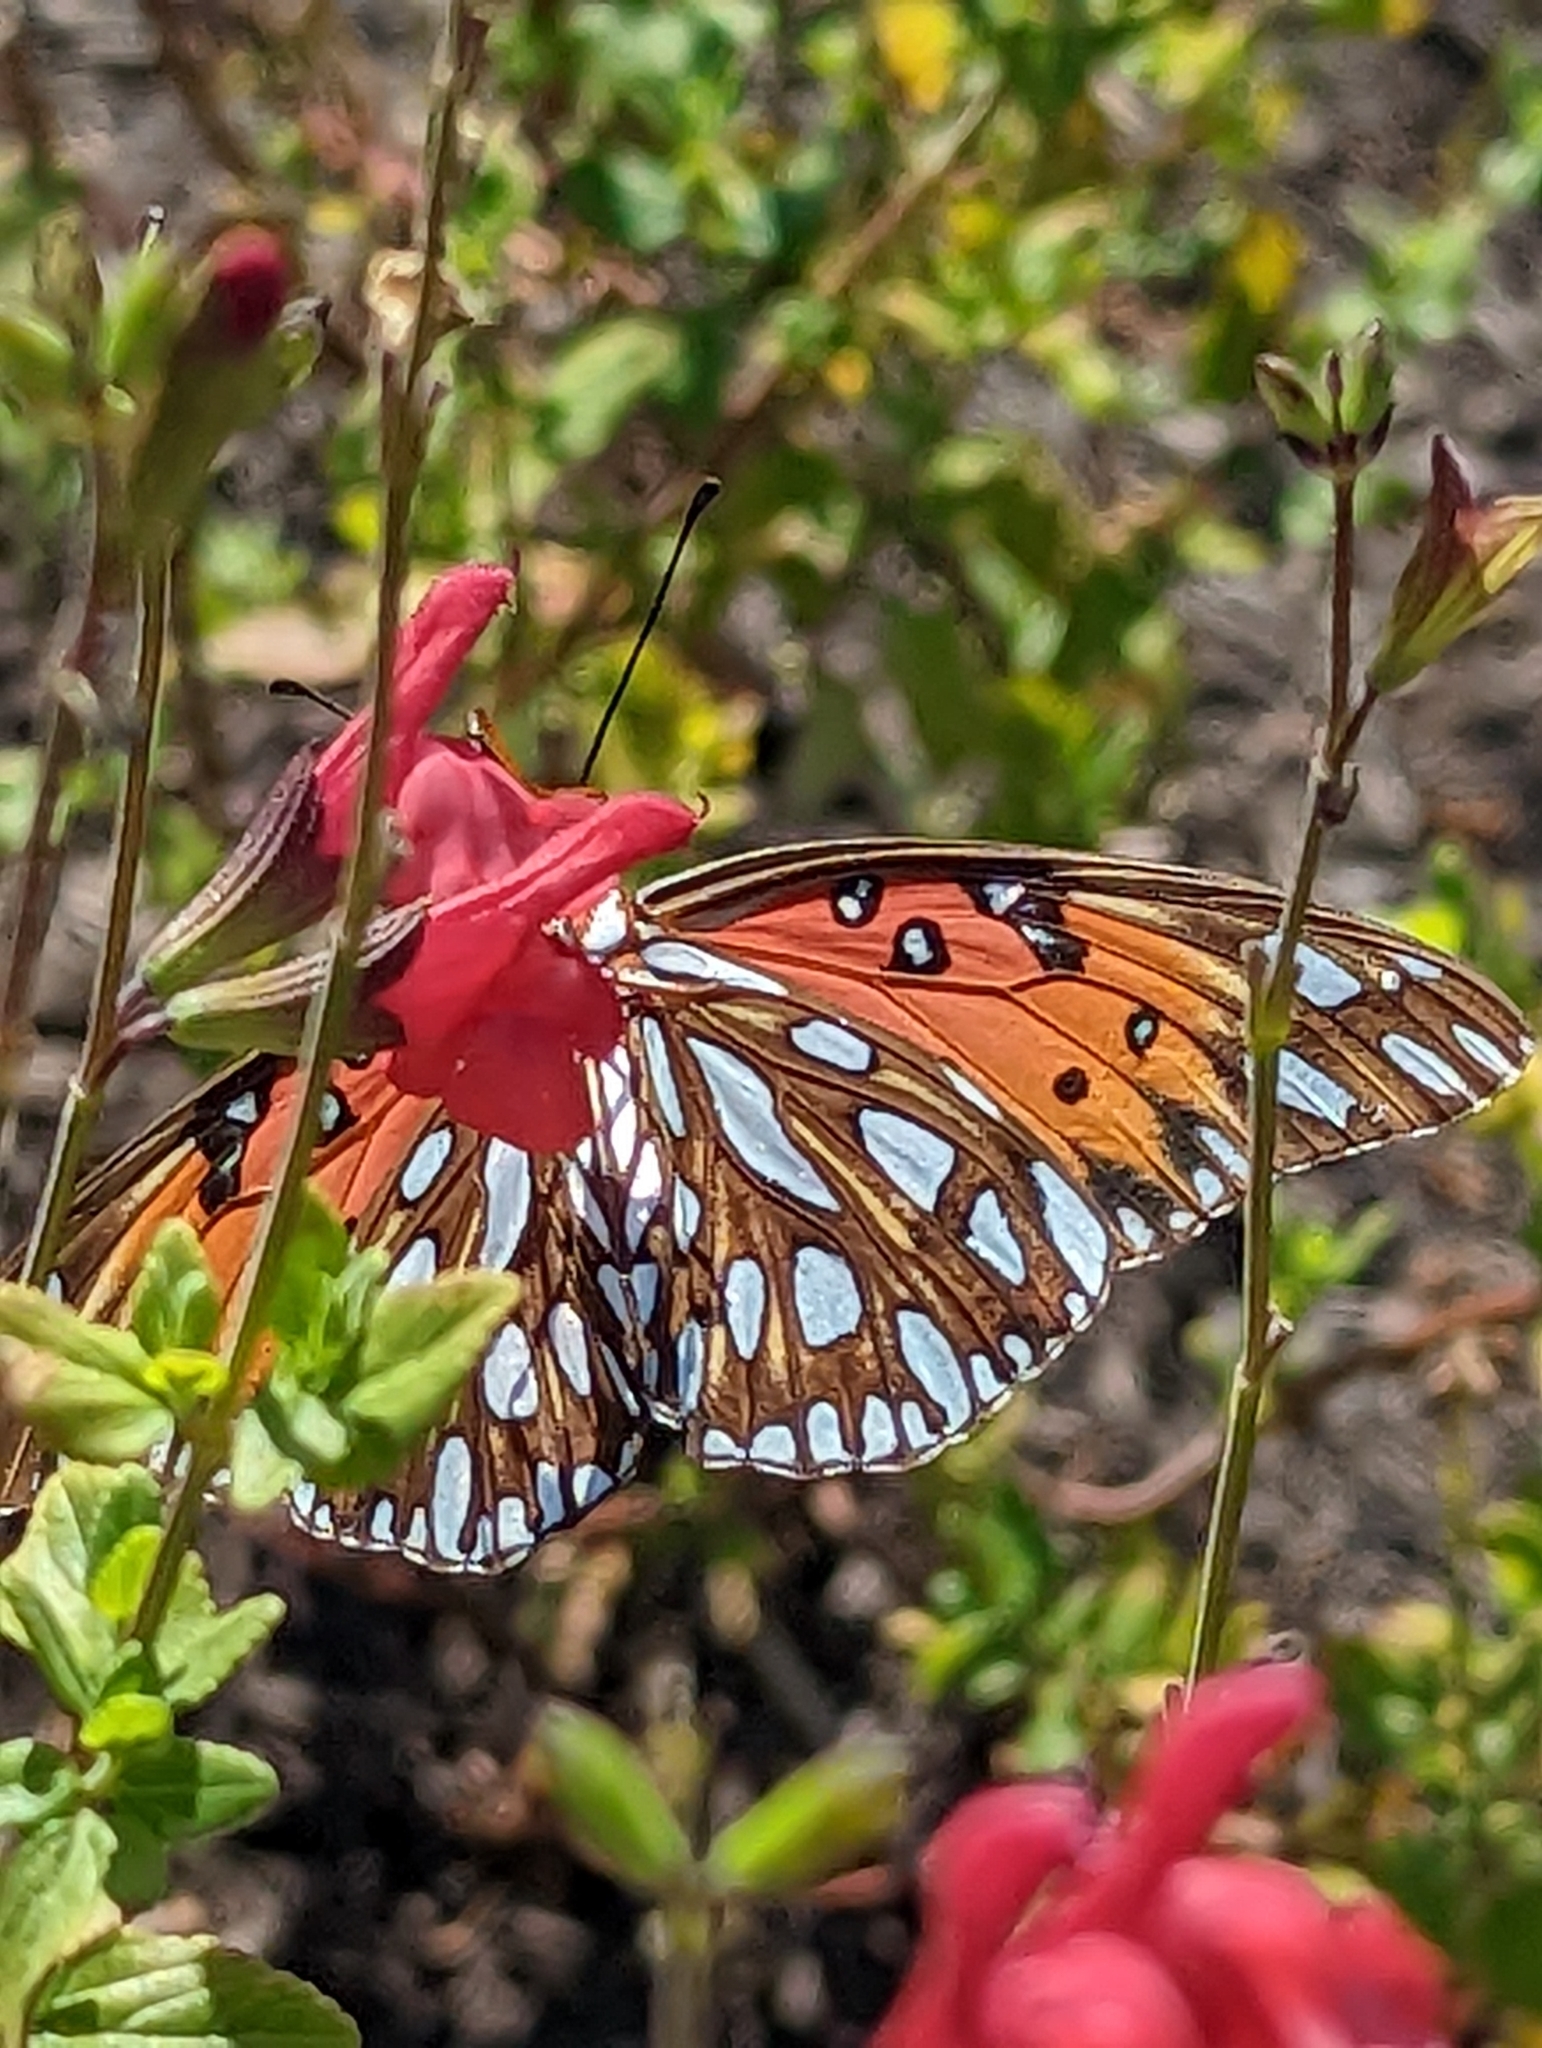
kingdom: Animalia
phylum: Arthropoda
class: Insecta
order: Lepidoptera
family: Nymphalidae
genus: Dione
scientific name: Dione vanillae
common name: Gulf fritillary
